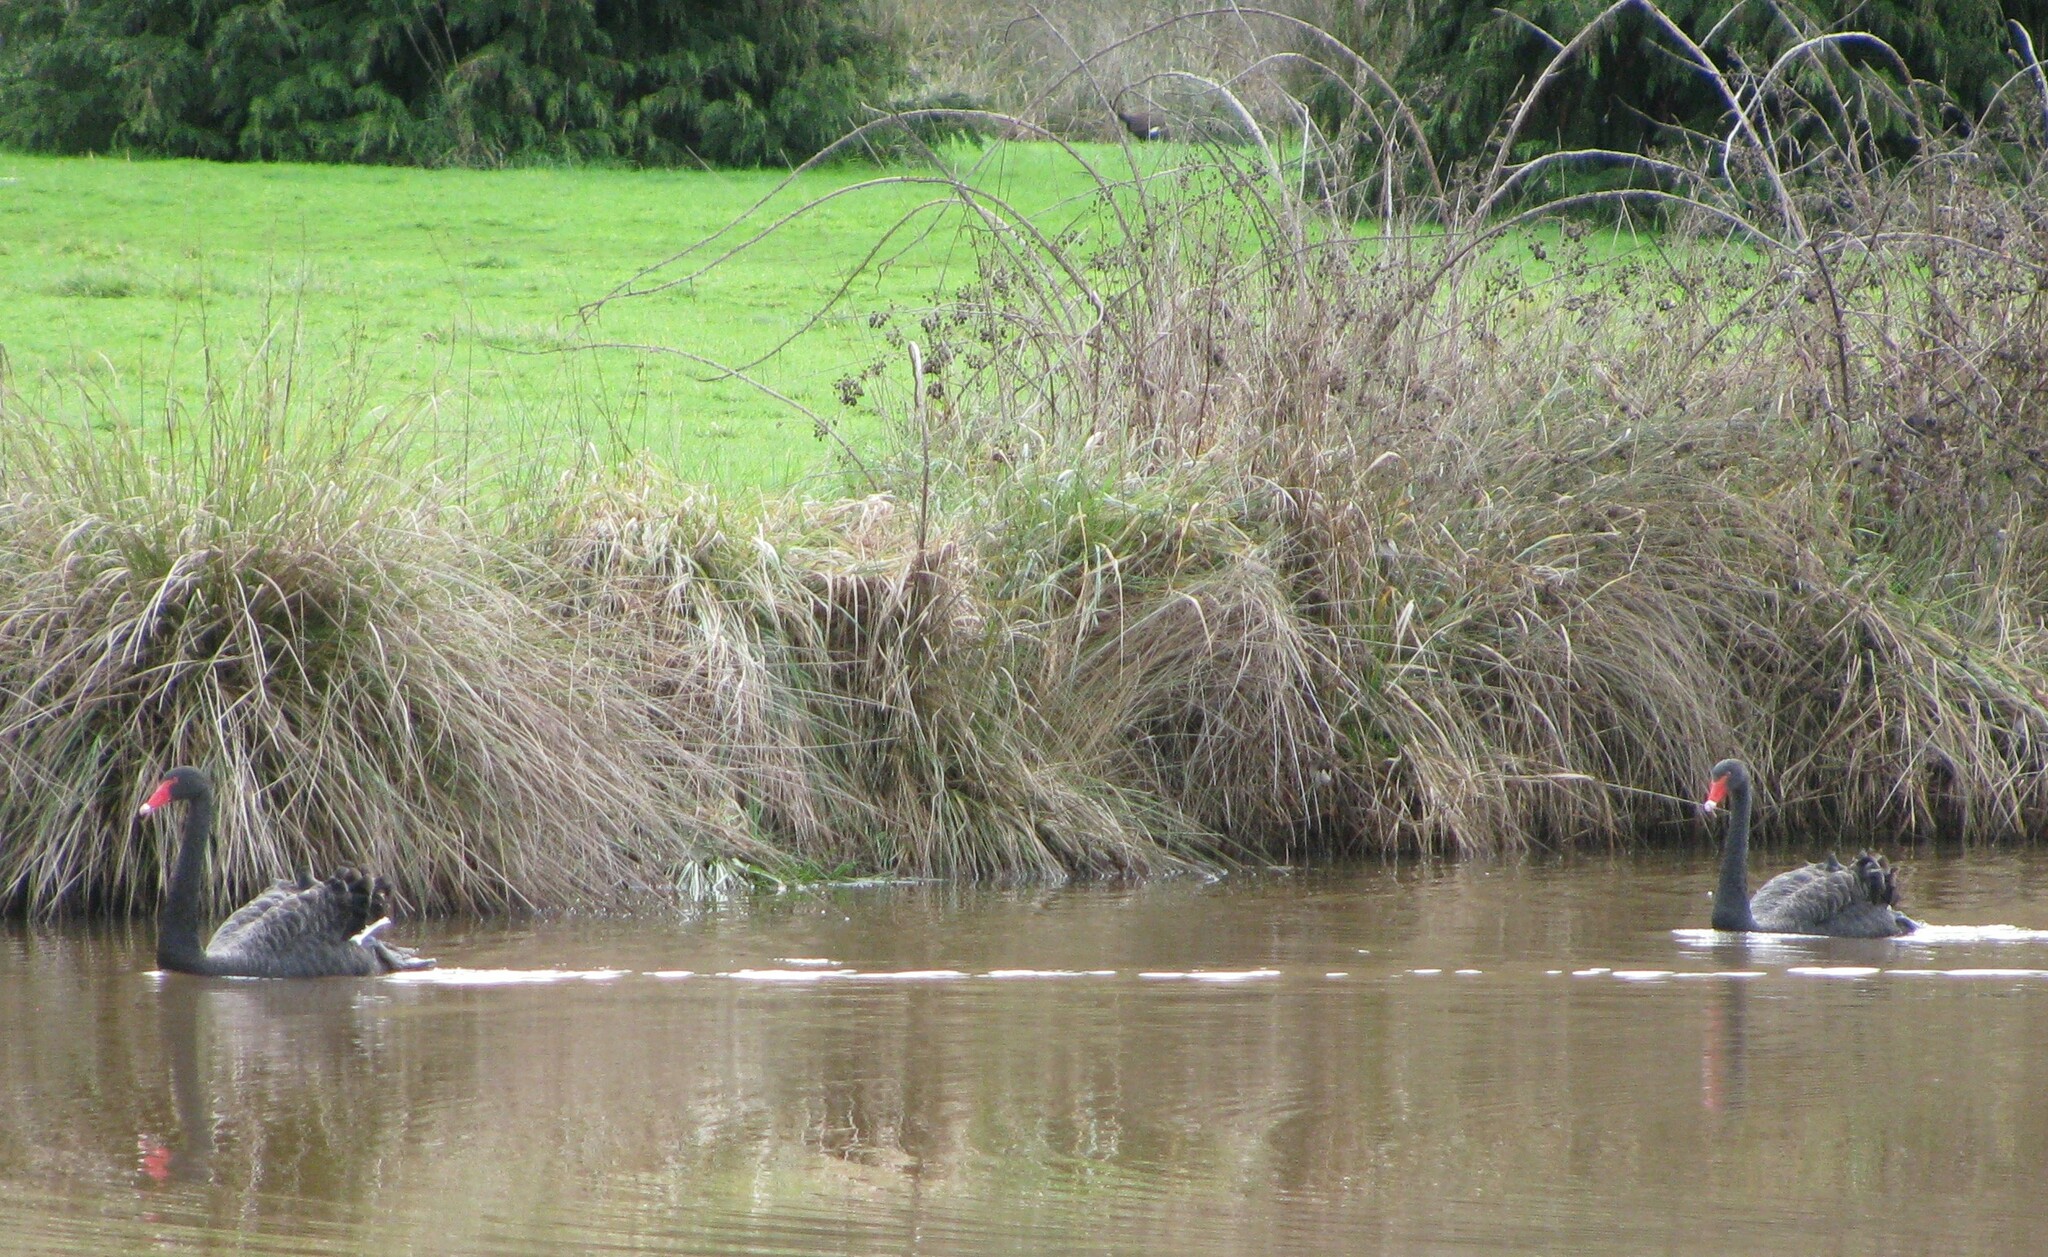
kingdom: Animalia
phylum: Chordata
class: Aves
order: Anseriformes
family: Anatidae
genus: Cygnus
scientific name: Cygnus atratus
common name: Black swan
